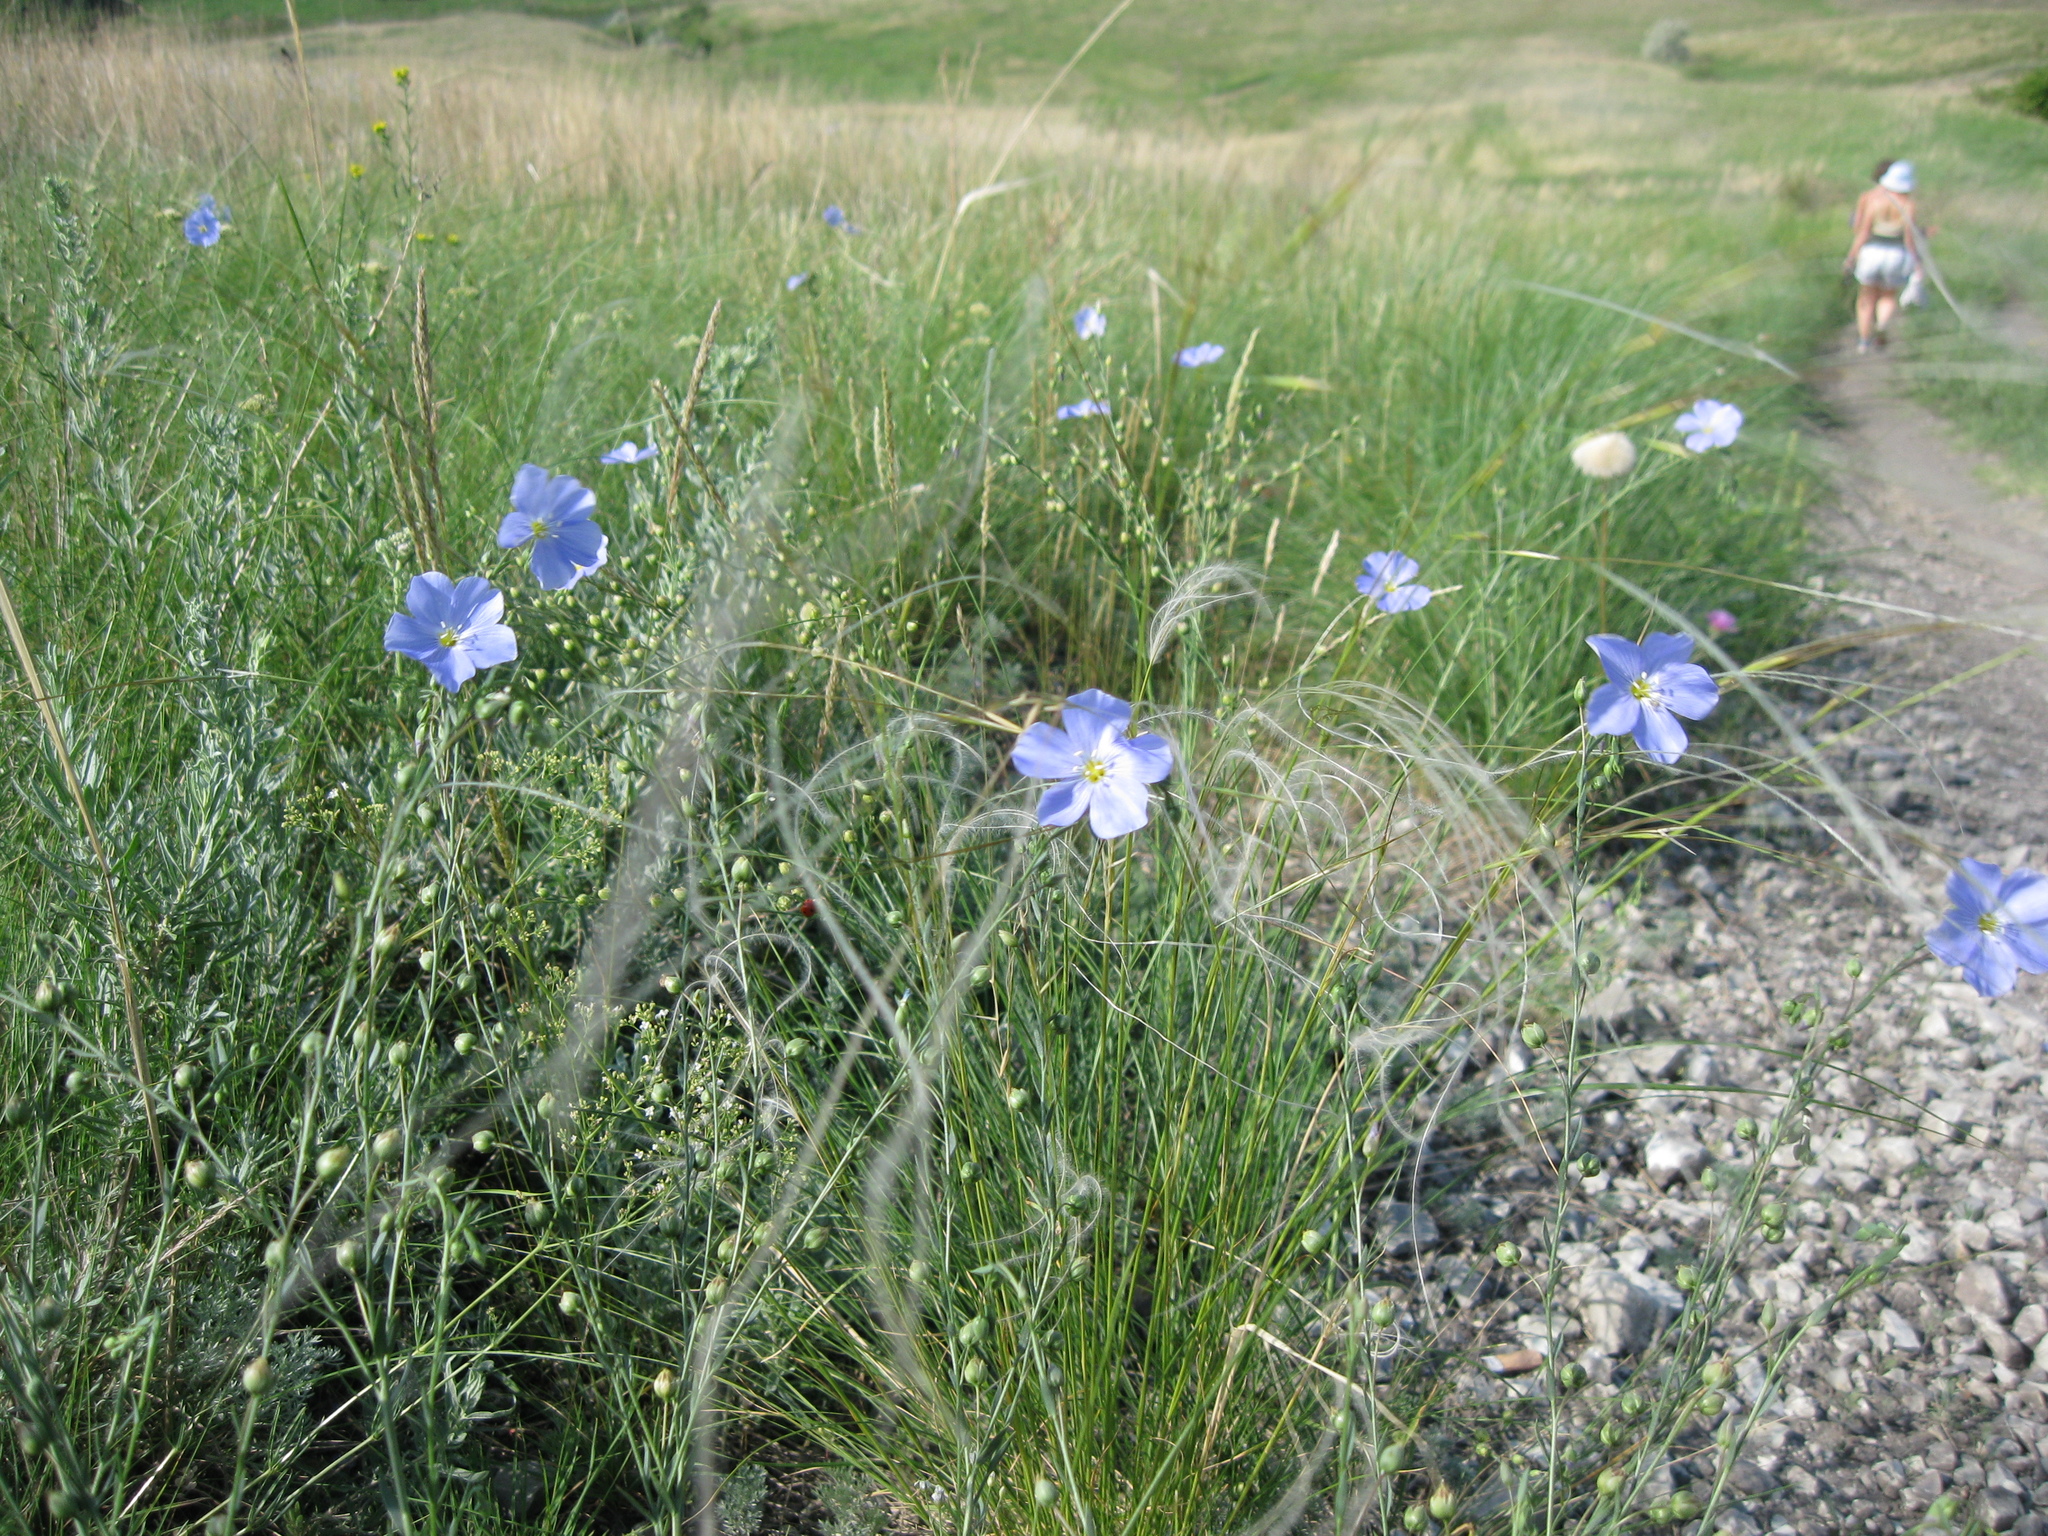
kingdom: Plantae
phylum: Tracheophyta
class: Magnoliopsida
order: Malpighiales
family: Linaceae
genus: Linum
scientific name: Linum perenne
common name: Blue flax
